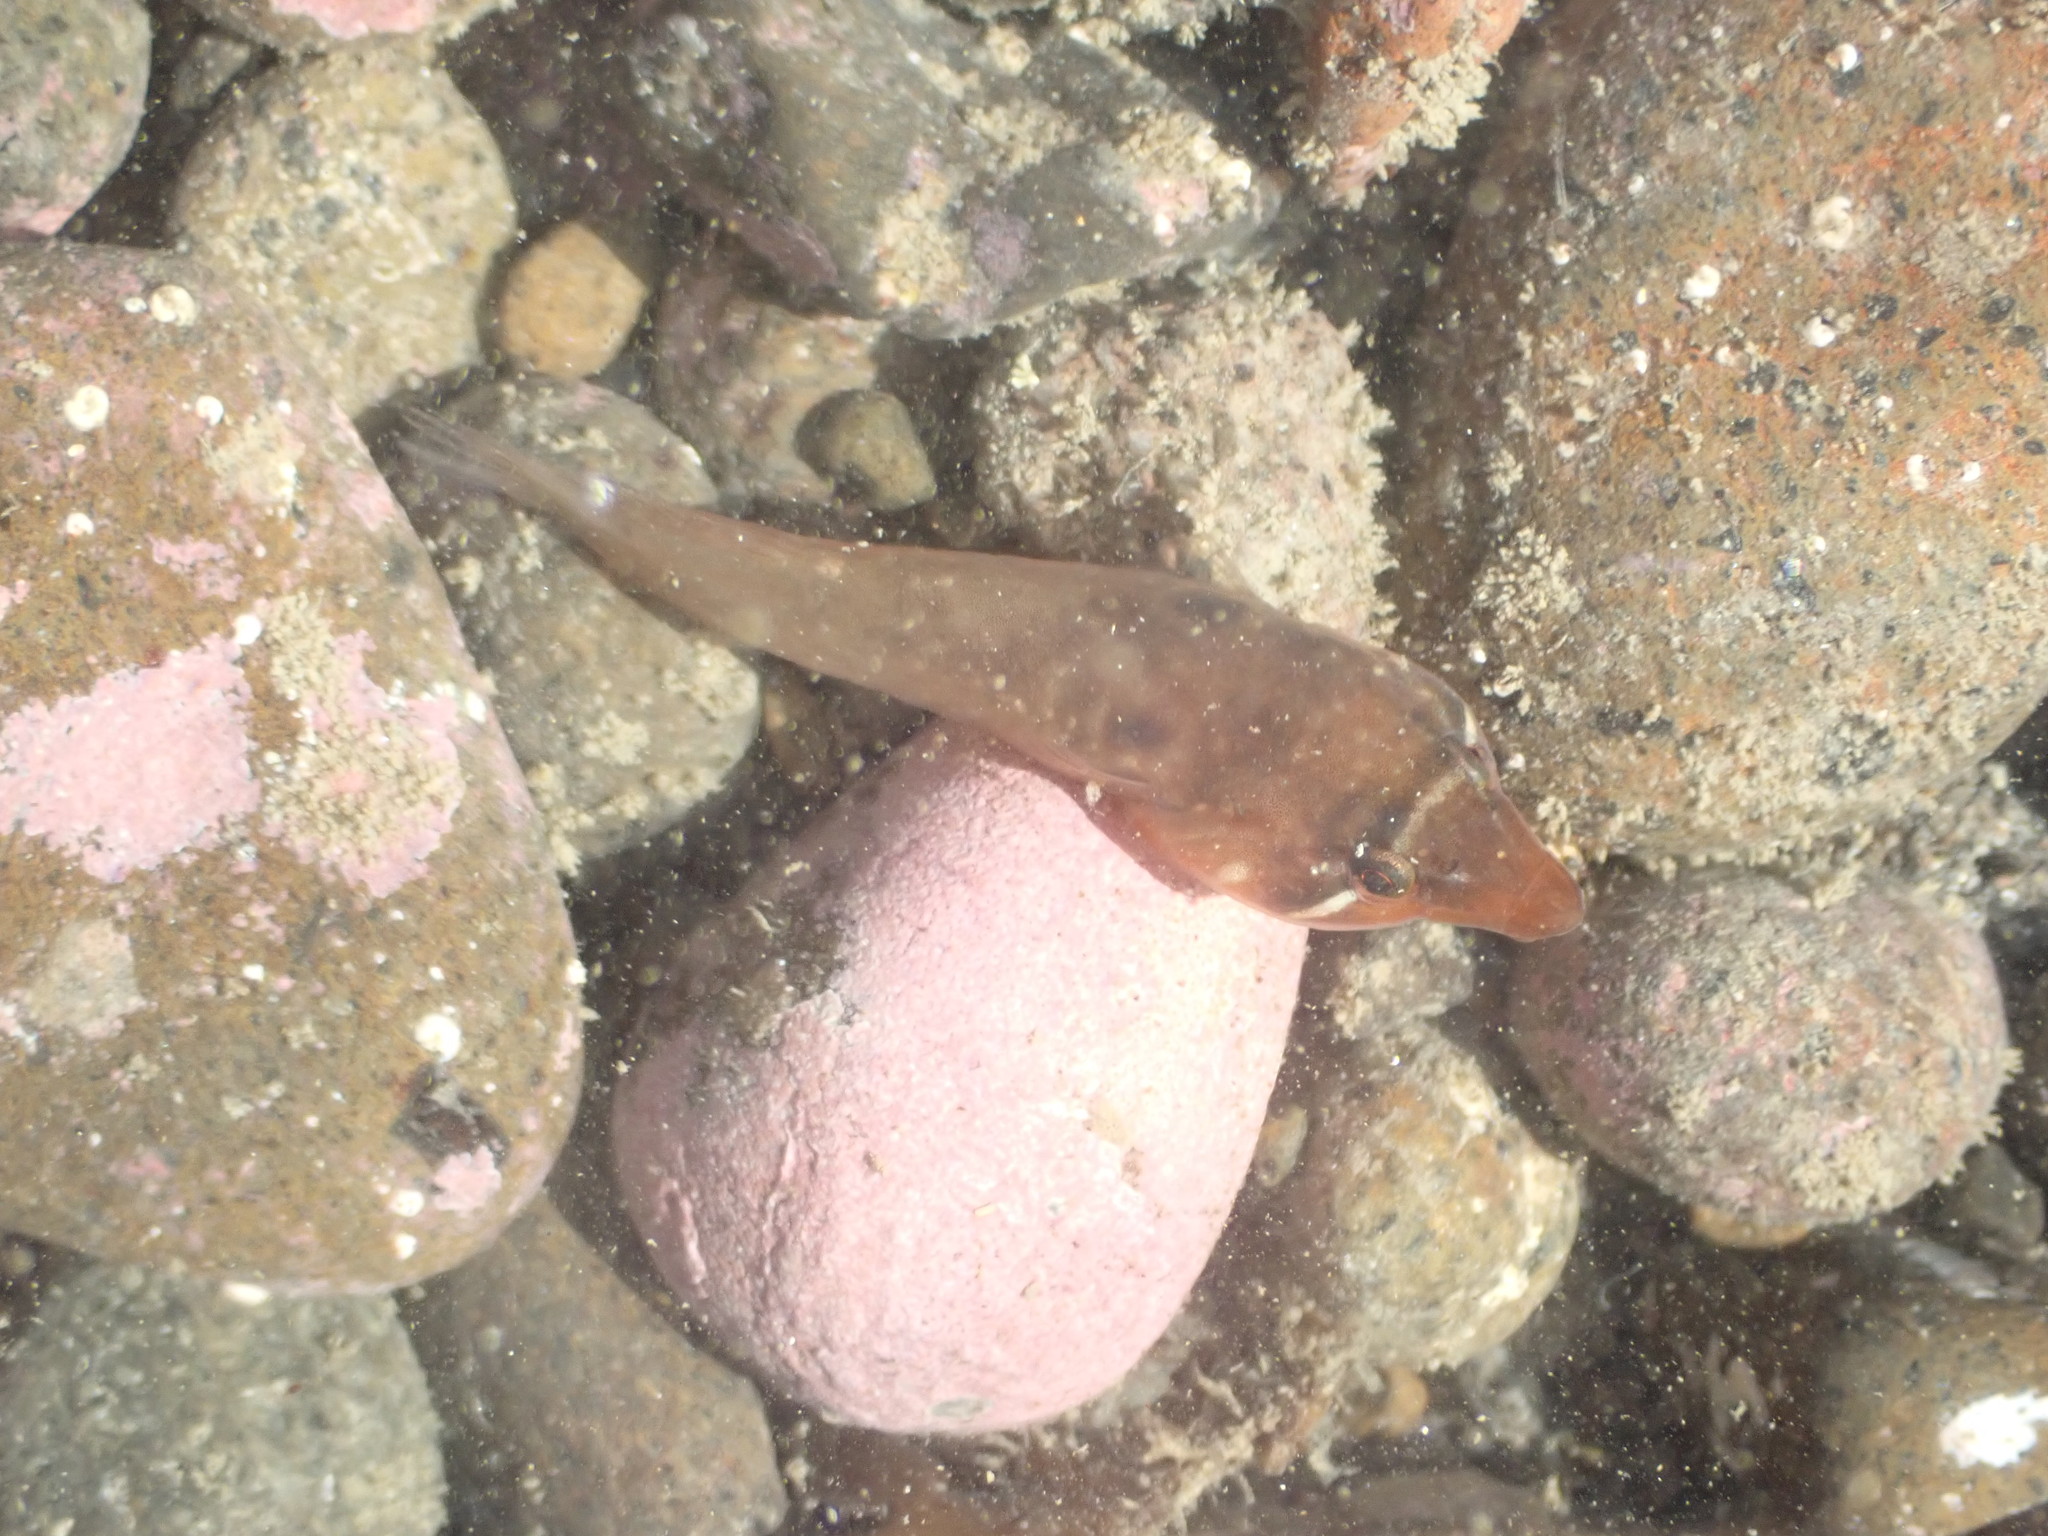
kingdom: Animalia
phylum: Chordata
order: Gobiesociformes
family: Gobiesocidae
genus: Dellichthys
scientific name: Dellichthys morelandi
